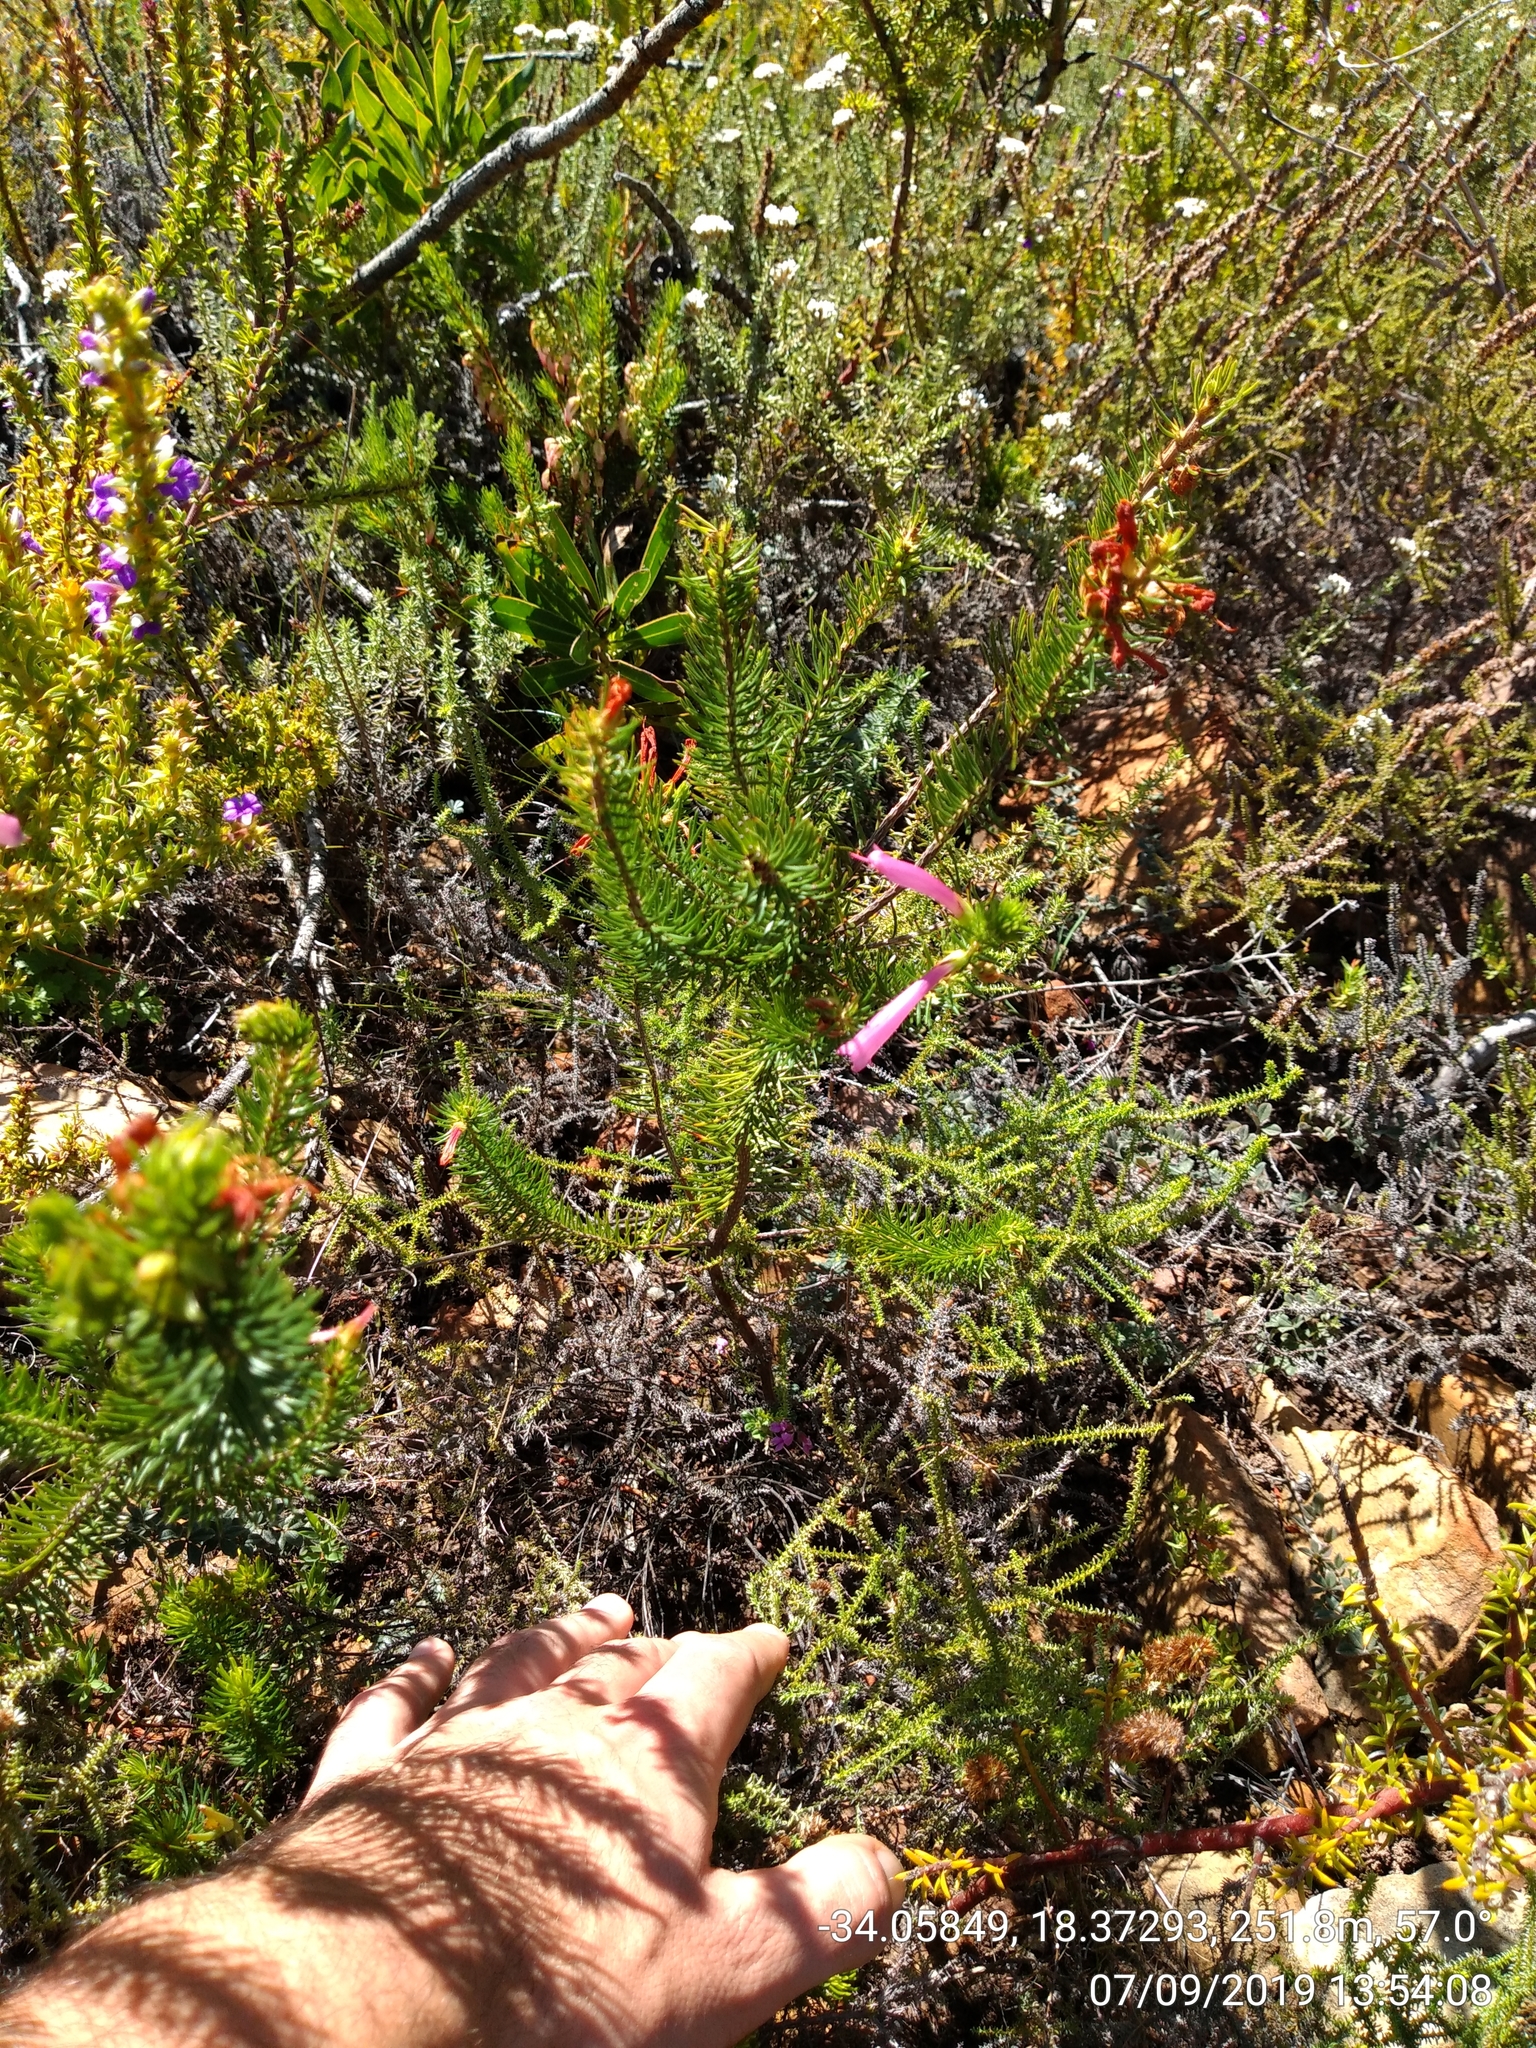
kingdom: Plantae
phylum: Tracheophyta
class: Magnoliopsida
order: Ericales
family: Ericaceae
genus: Erica
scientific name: Erica abietina
